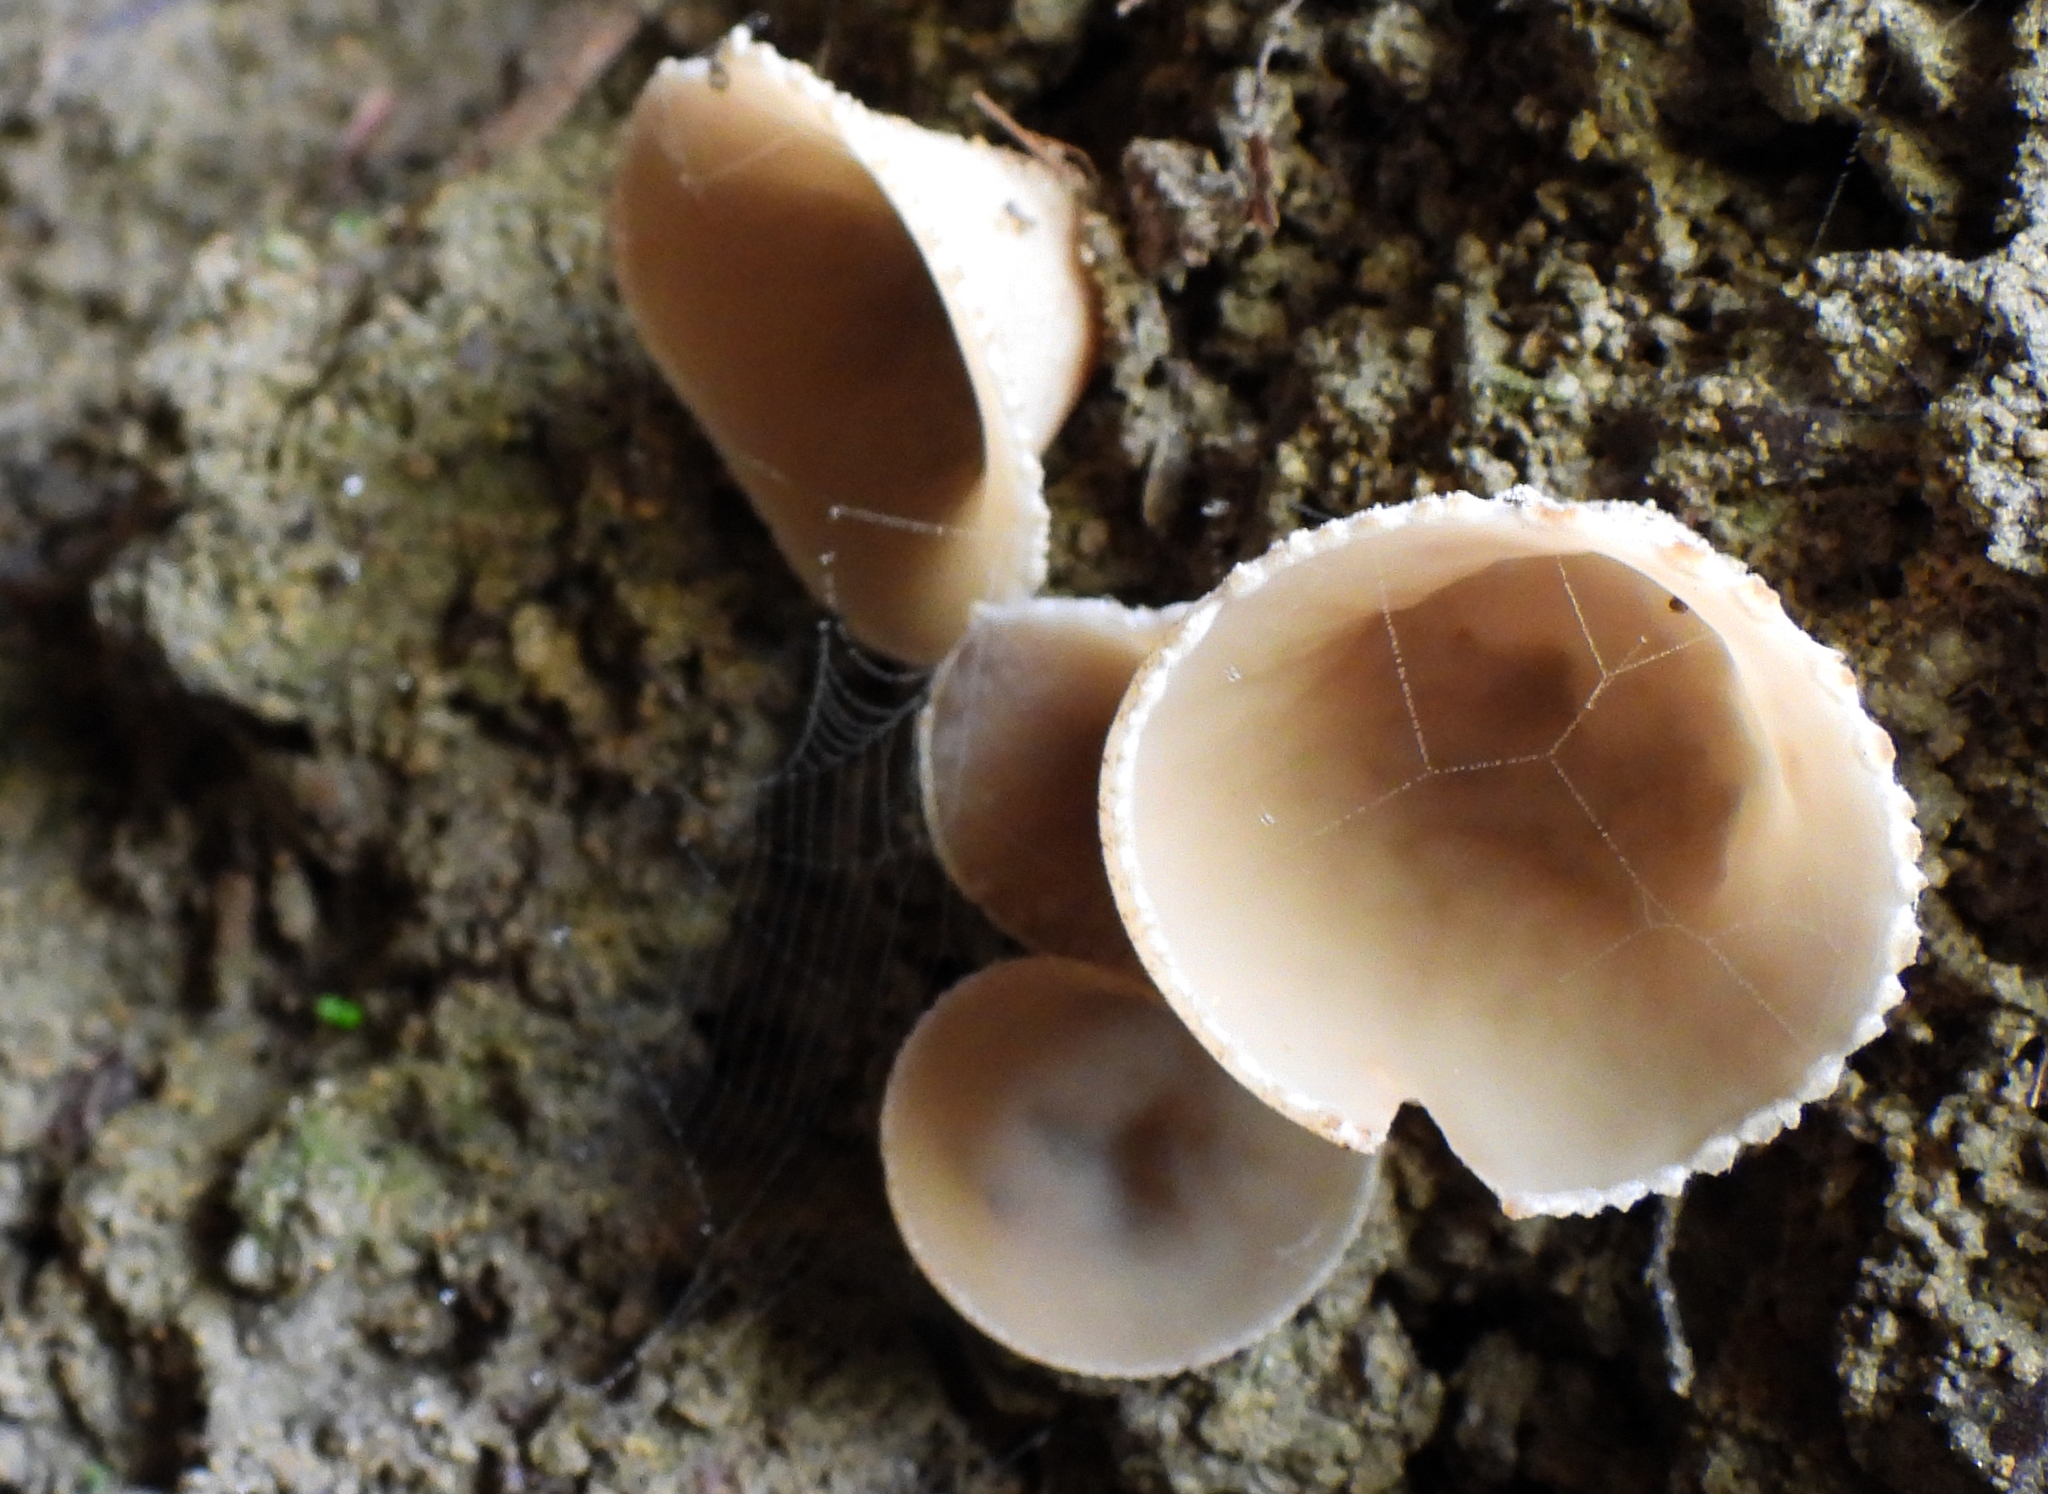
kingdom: Fungi
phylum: Ascomycota
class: Pezizomycetes
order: Pezizales
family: Tarzettaceae
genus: Tarzetta
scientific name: Tarzetta cupularis
